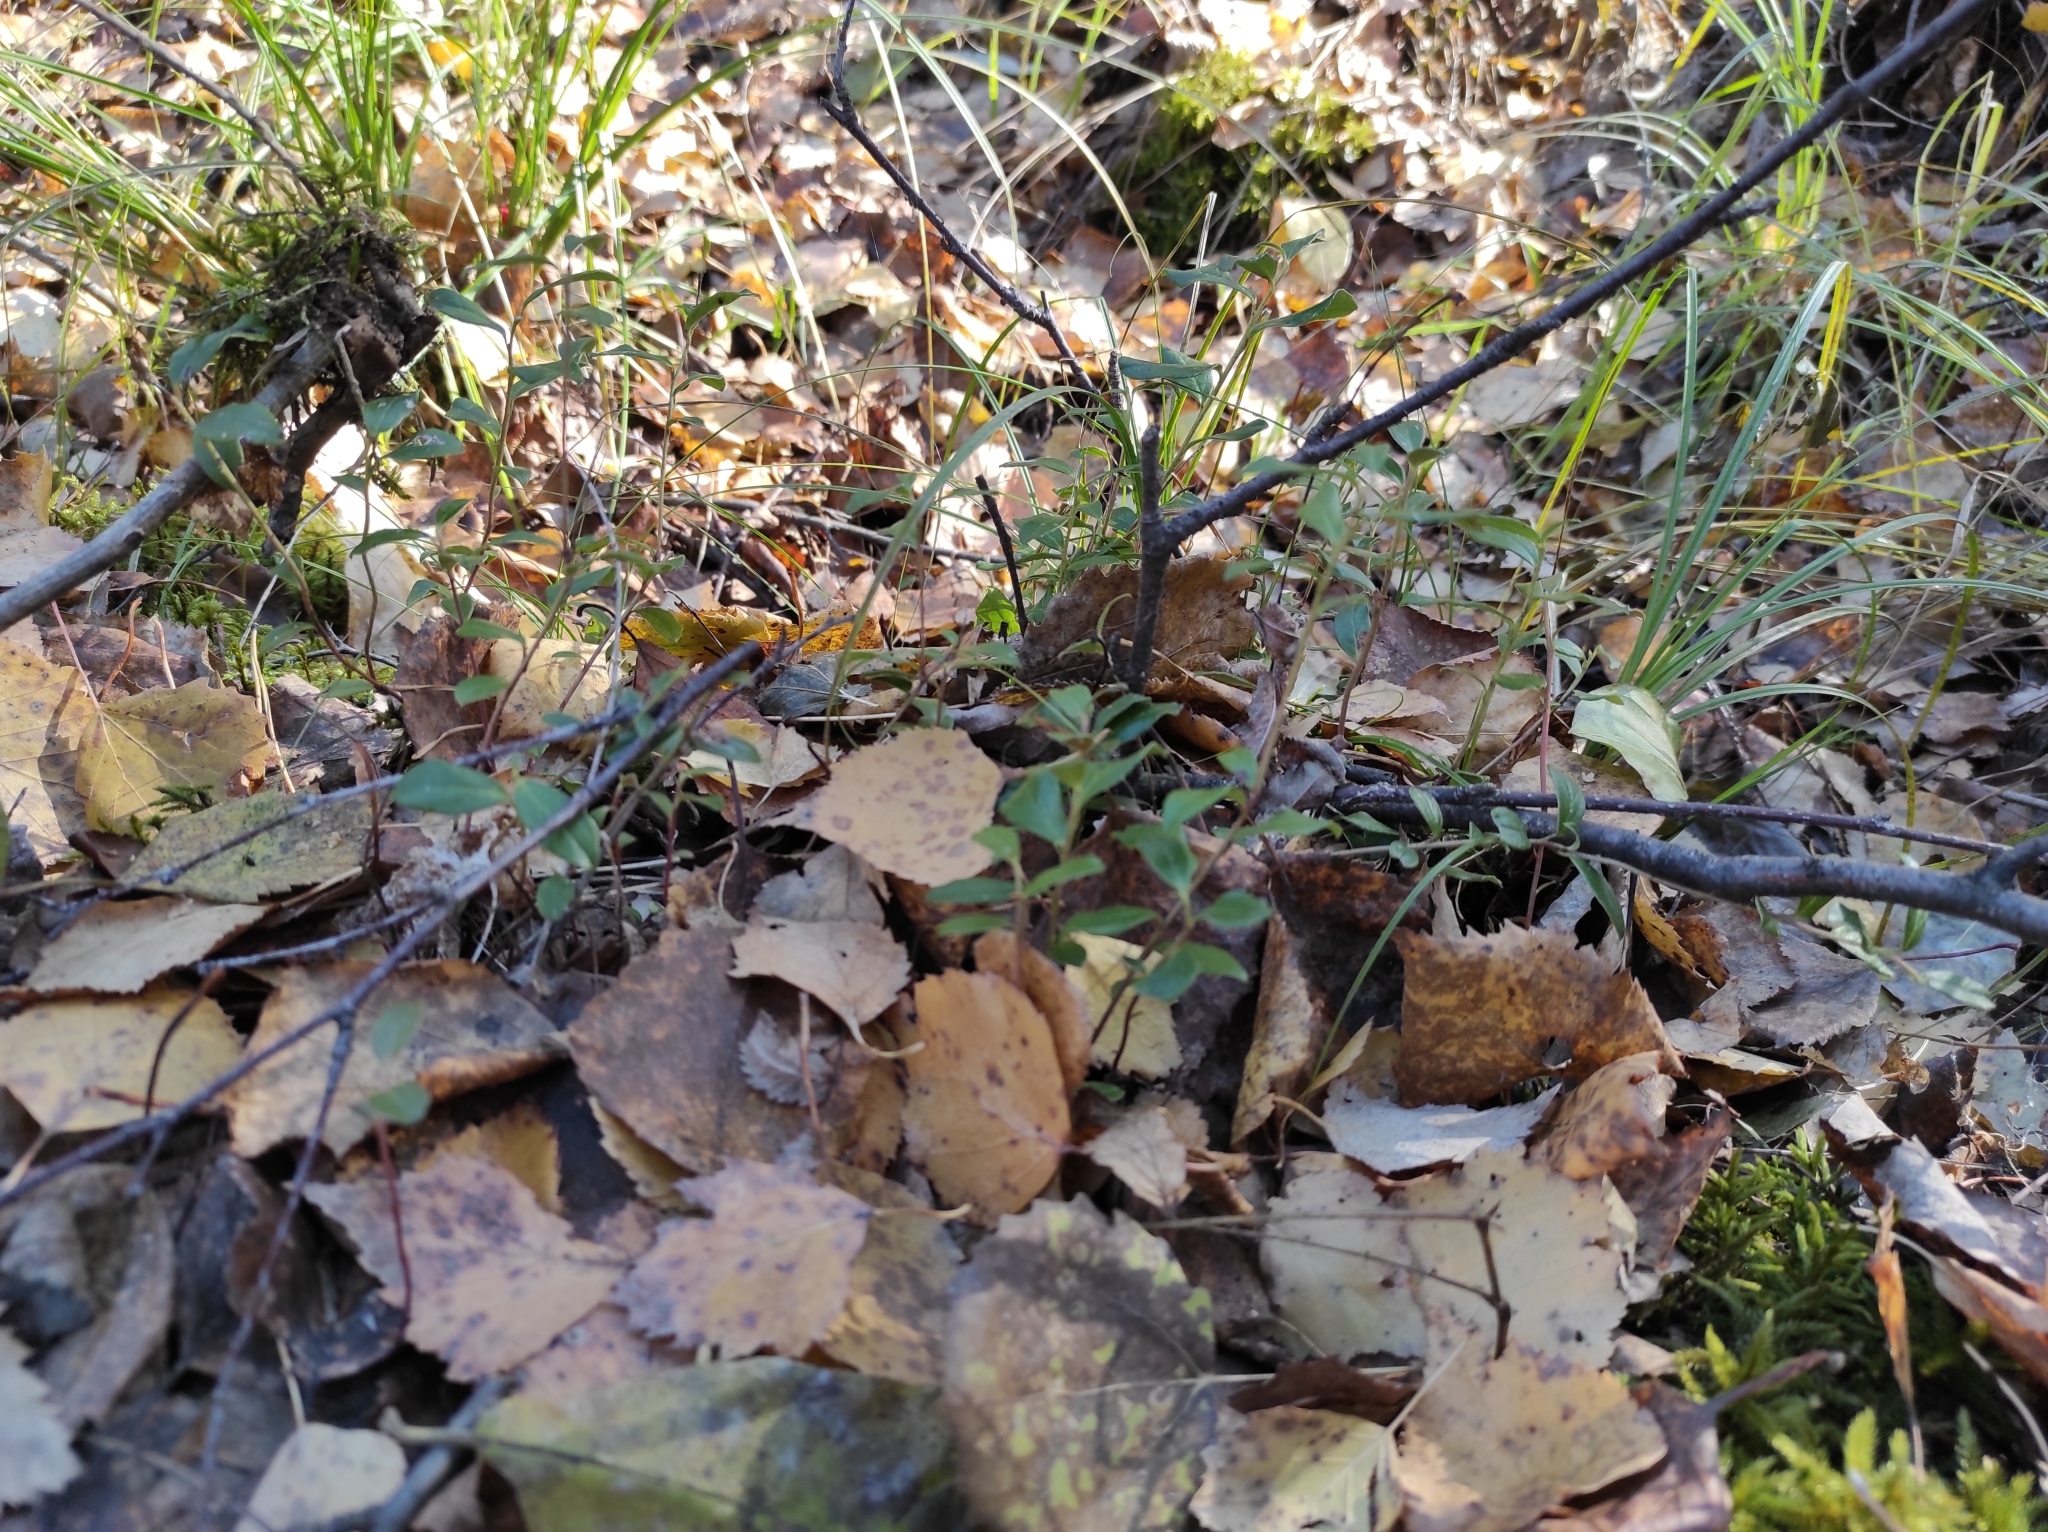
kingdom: Plantae
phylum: Tracheophyta
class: Magnoliopsida
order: Ericales
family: Ericaceae
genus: Vaccinium
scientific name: Vaccinium vitis-idaea
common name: Cowberry
